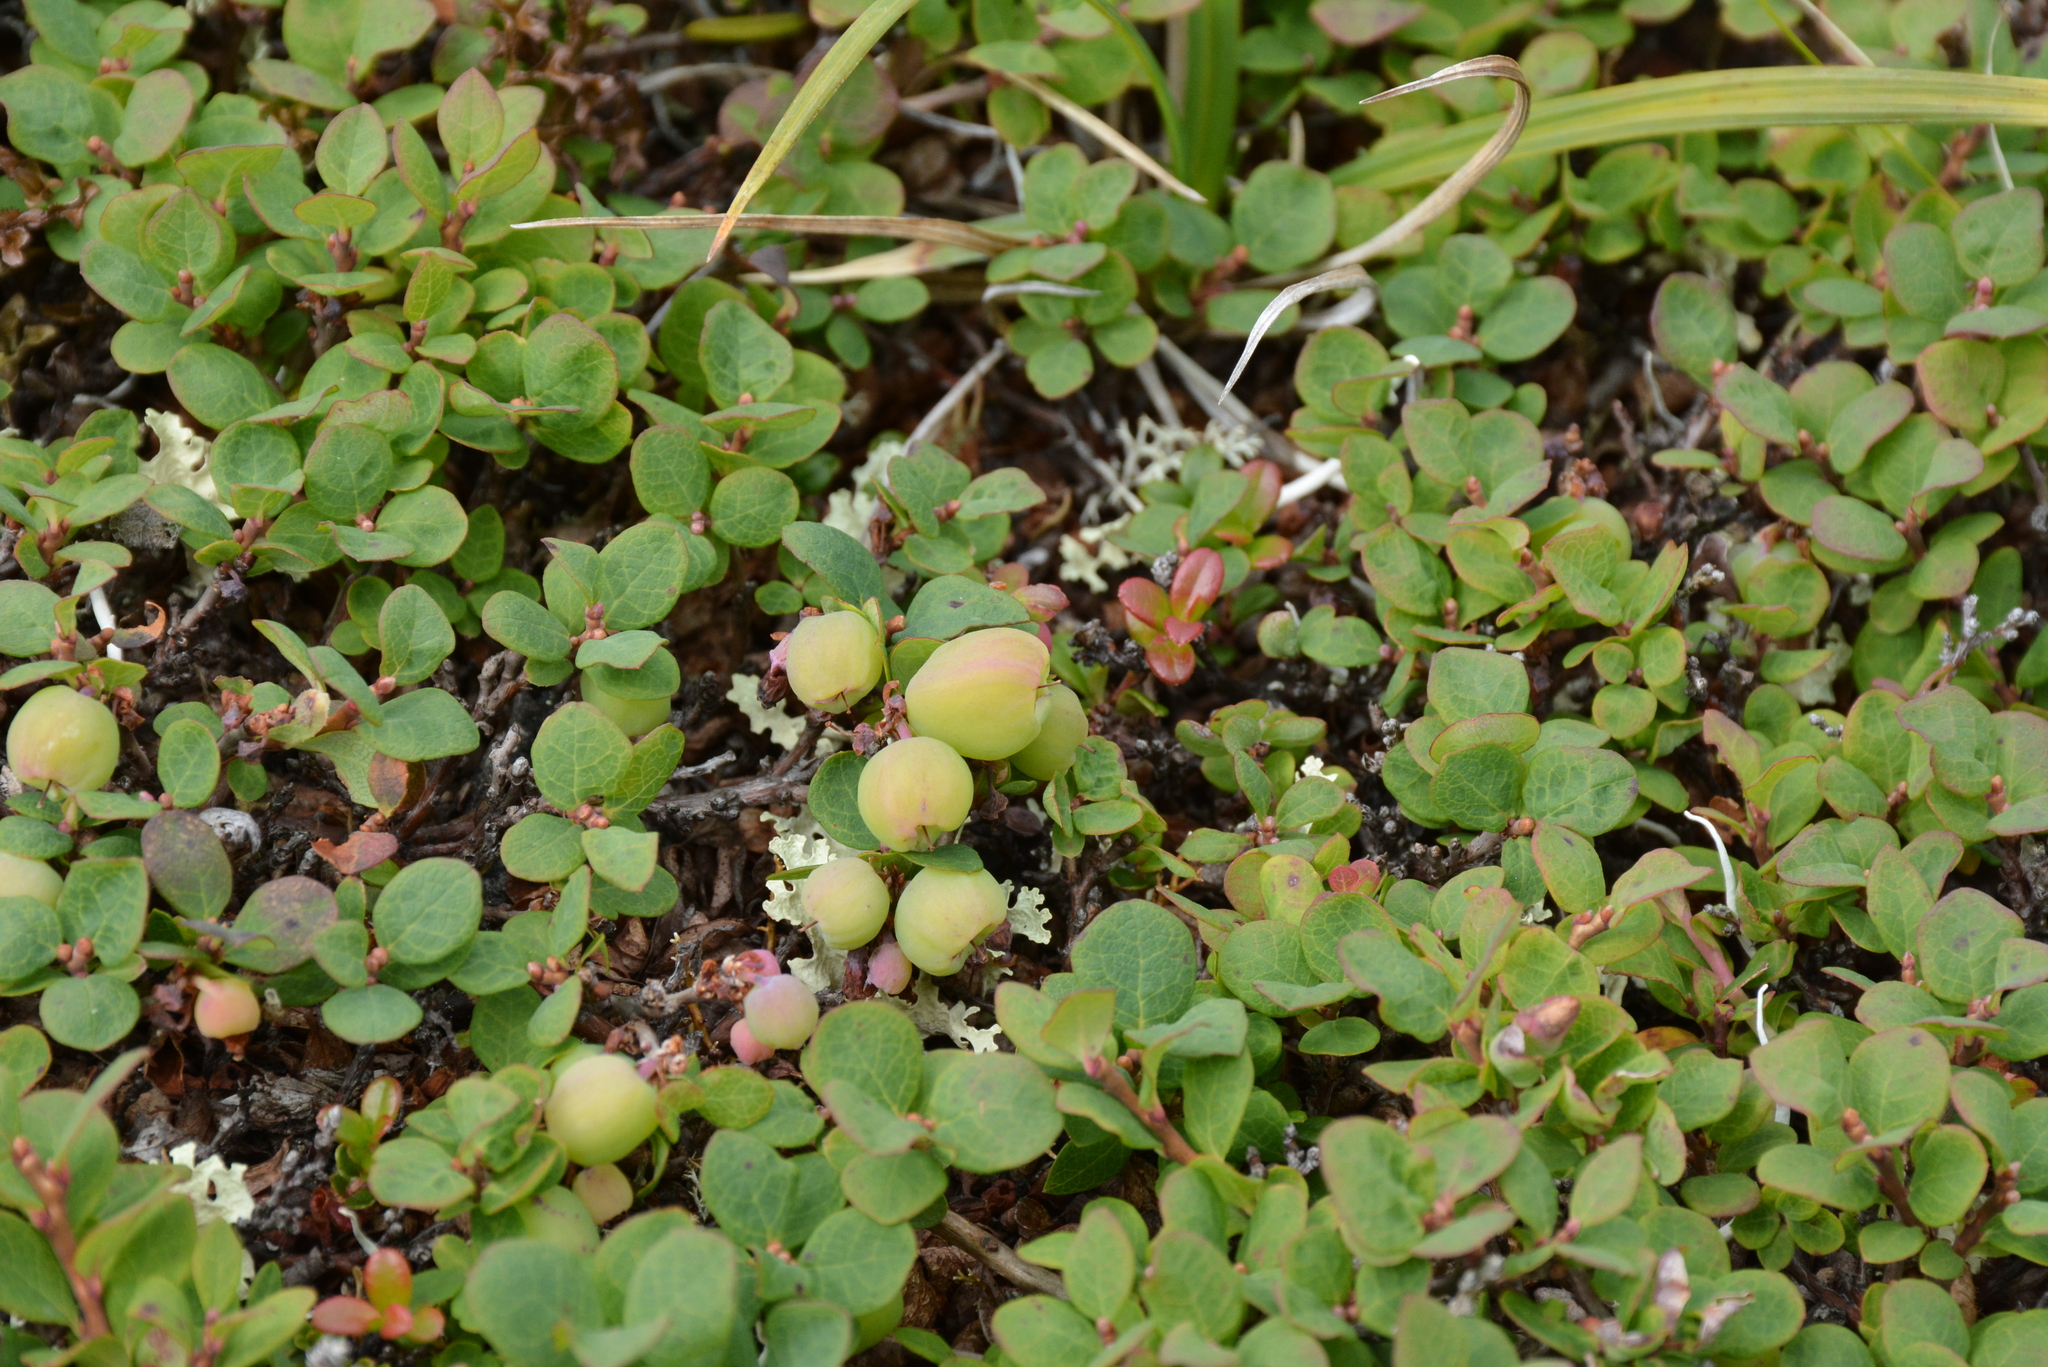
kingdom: Plantae
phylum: Tracheophyta
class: Magnoliopsida
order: Ericales
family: Ericaceae
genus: Vaccinium
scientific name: Vaccinium uliginosum
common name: Bog bilberry
